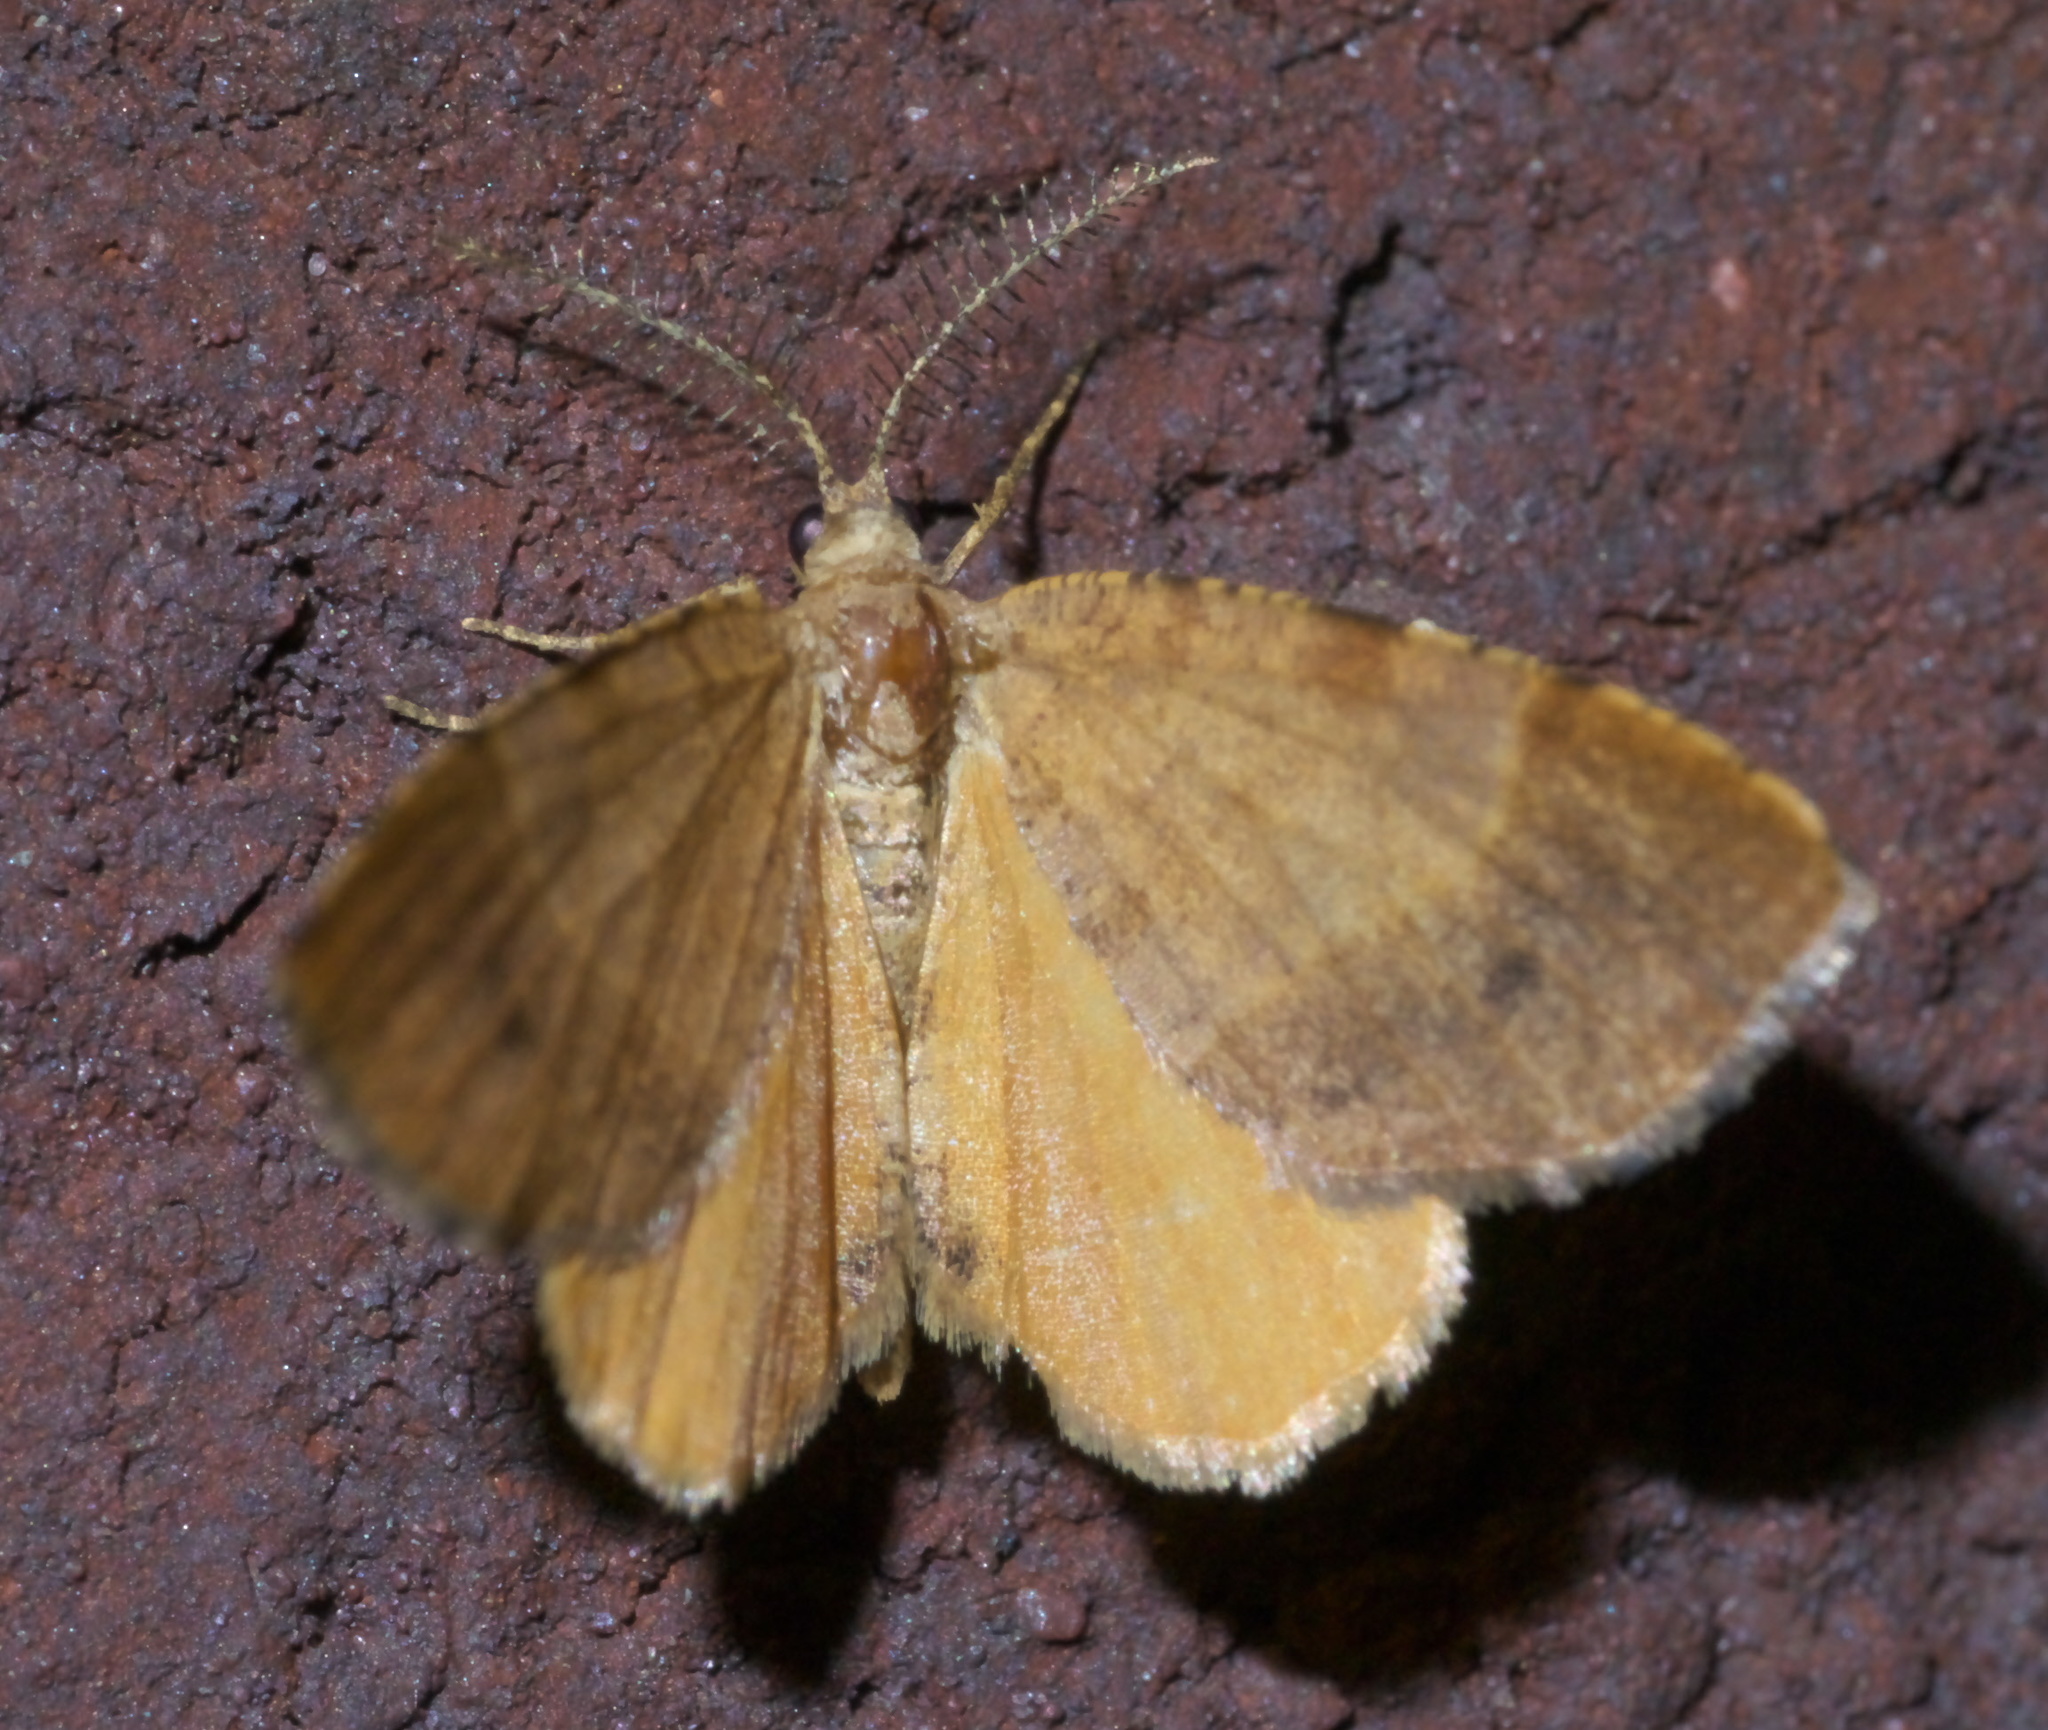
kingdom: Animalia
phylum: Arthropoda
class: Insecta
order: Lepidoptera
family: Geometridae
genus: Mellilla
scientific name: Mellilla xanthometata
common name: Orange wing moth
